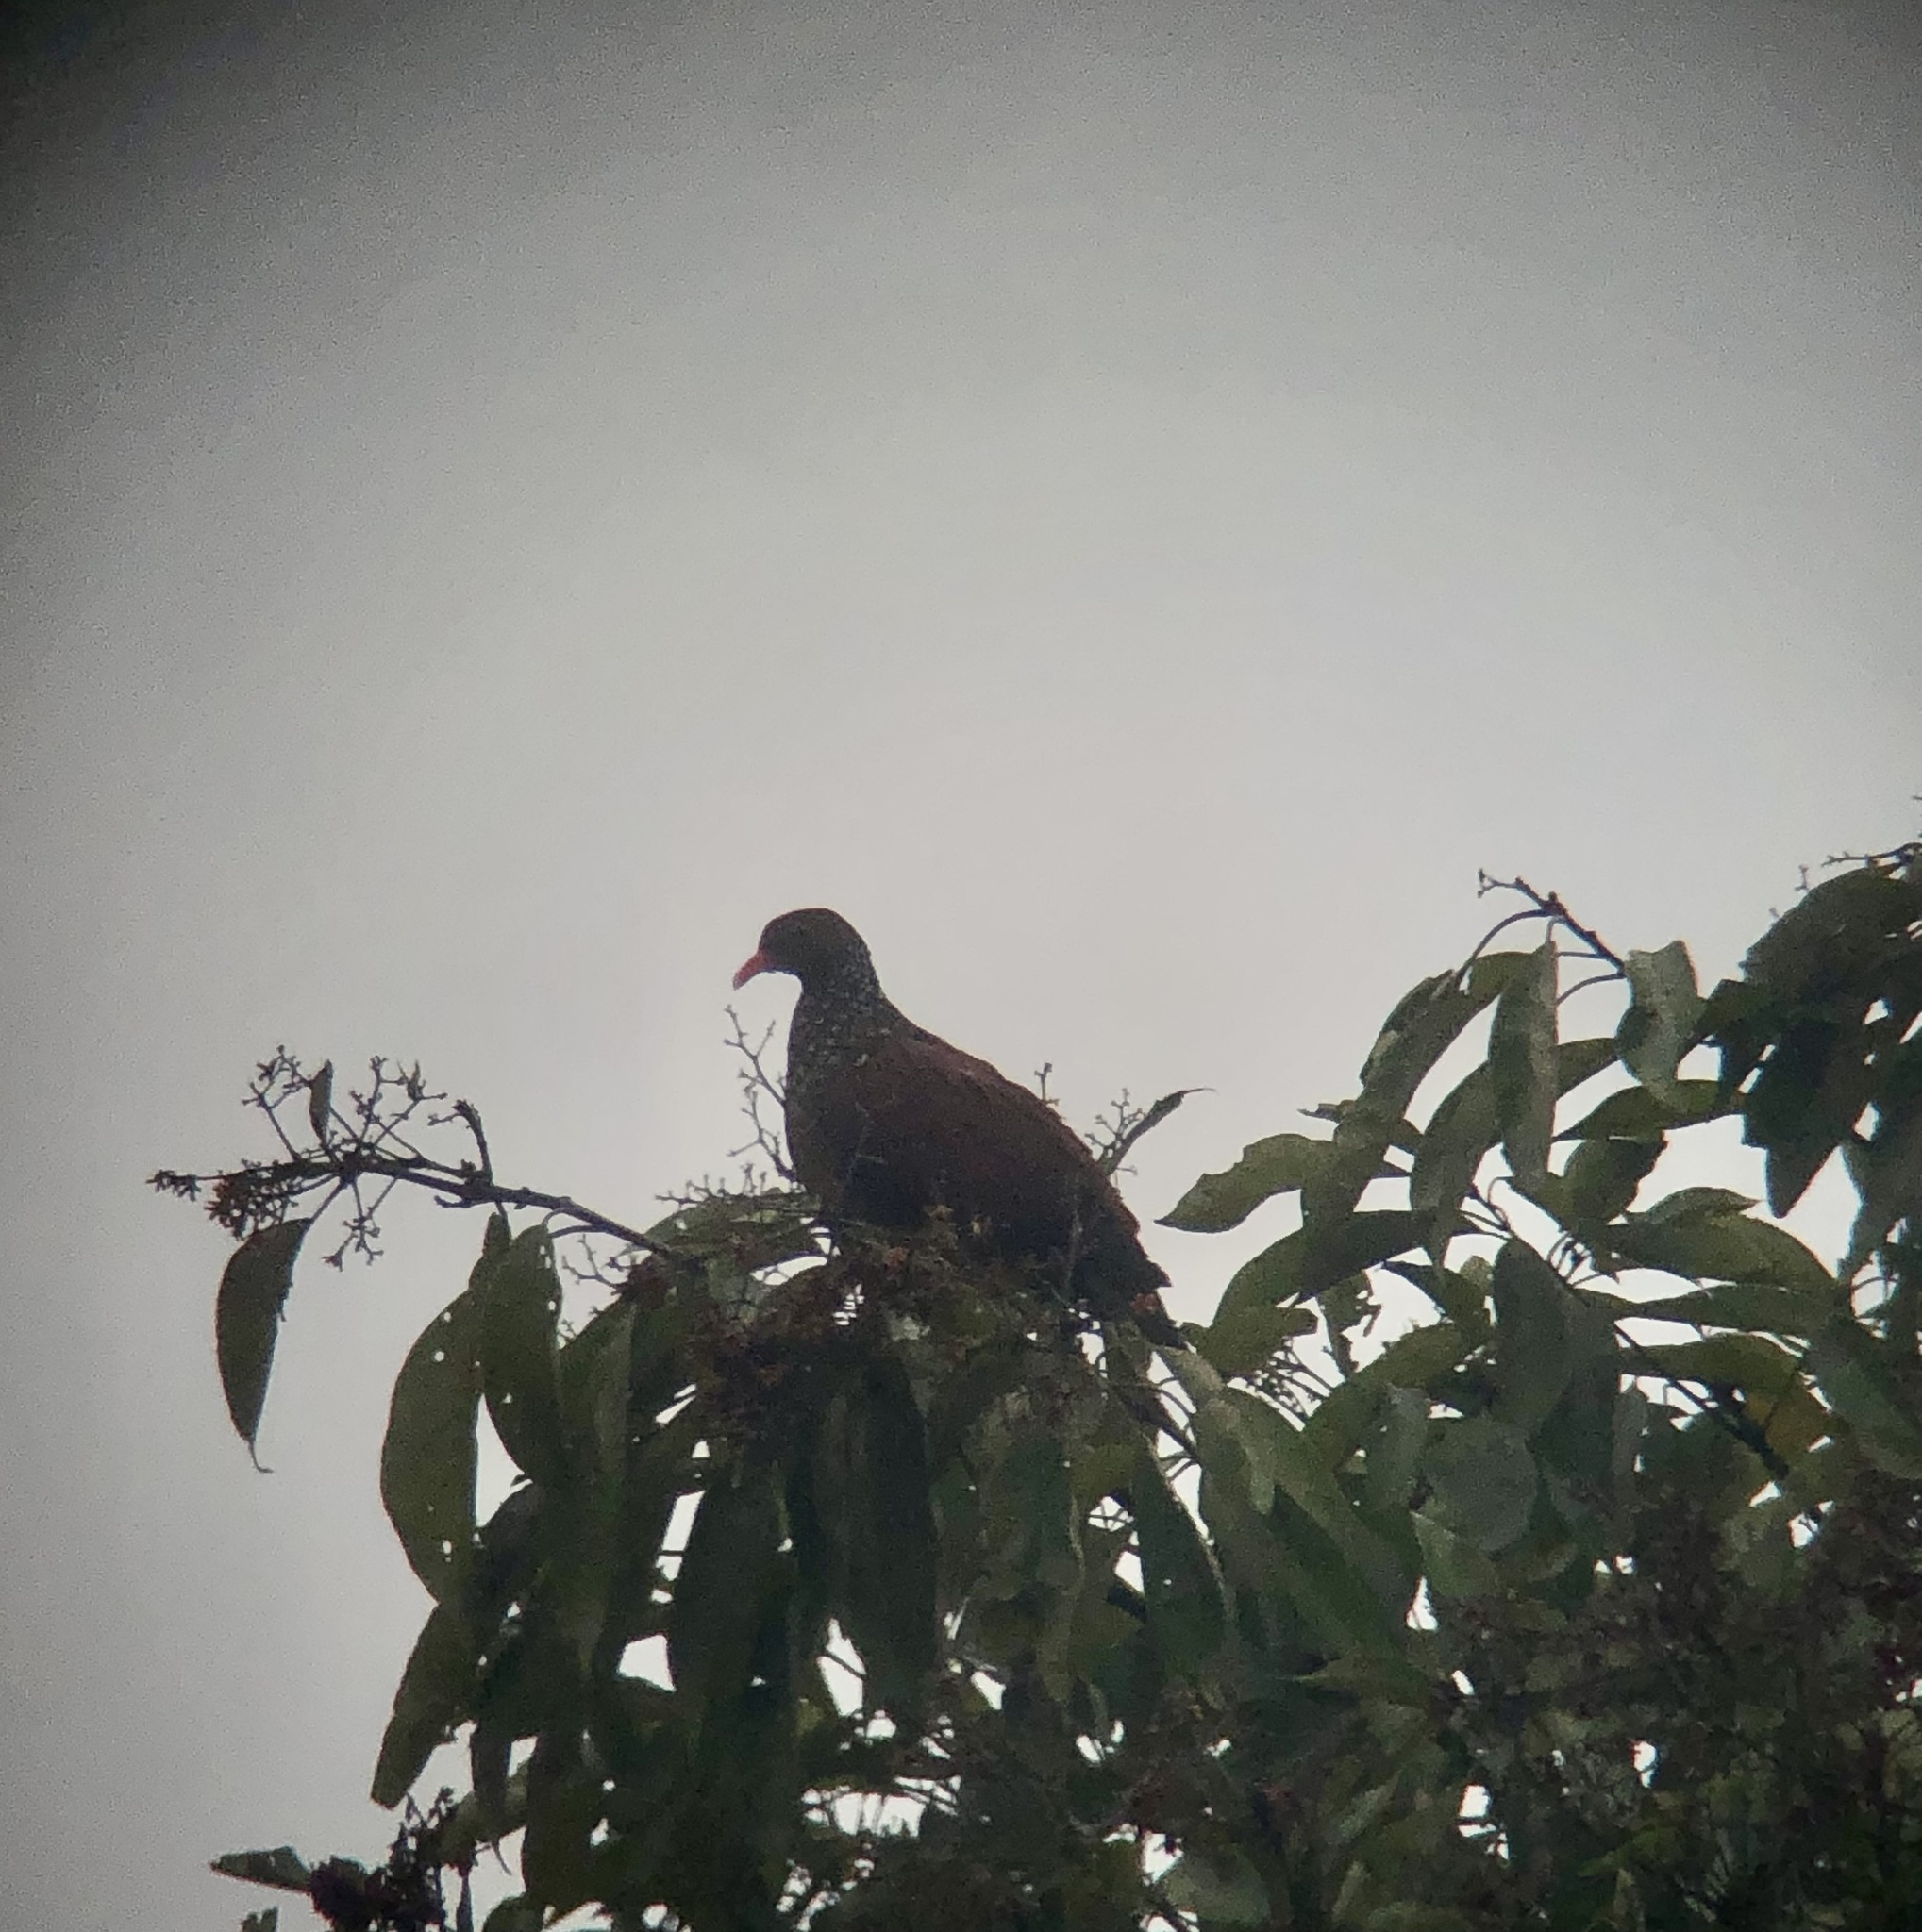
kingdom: Animalia
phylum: Chordata
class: Aves
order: Columbiformes
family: Columbidae
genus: Patagioenas
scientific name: Patagioenas speciosa
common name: Scaled pigeon
